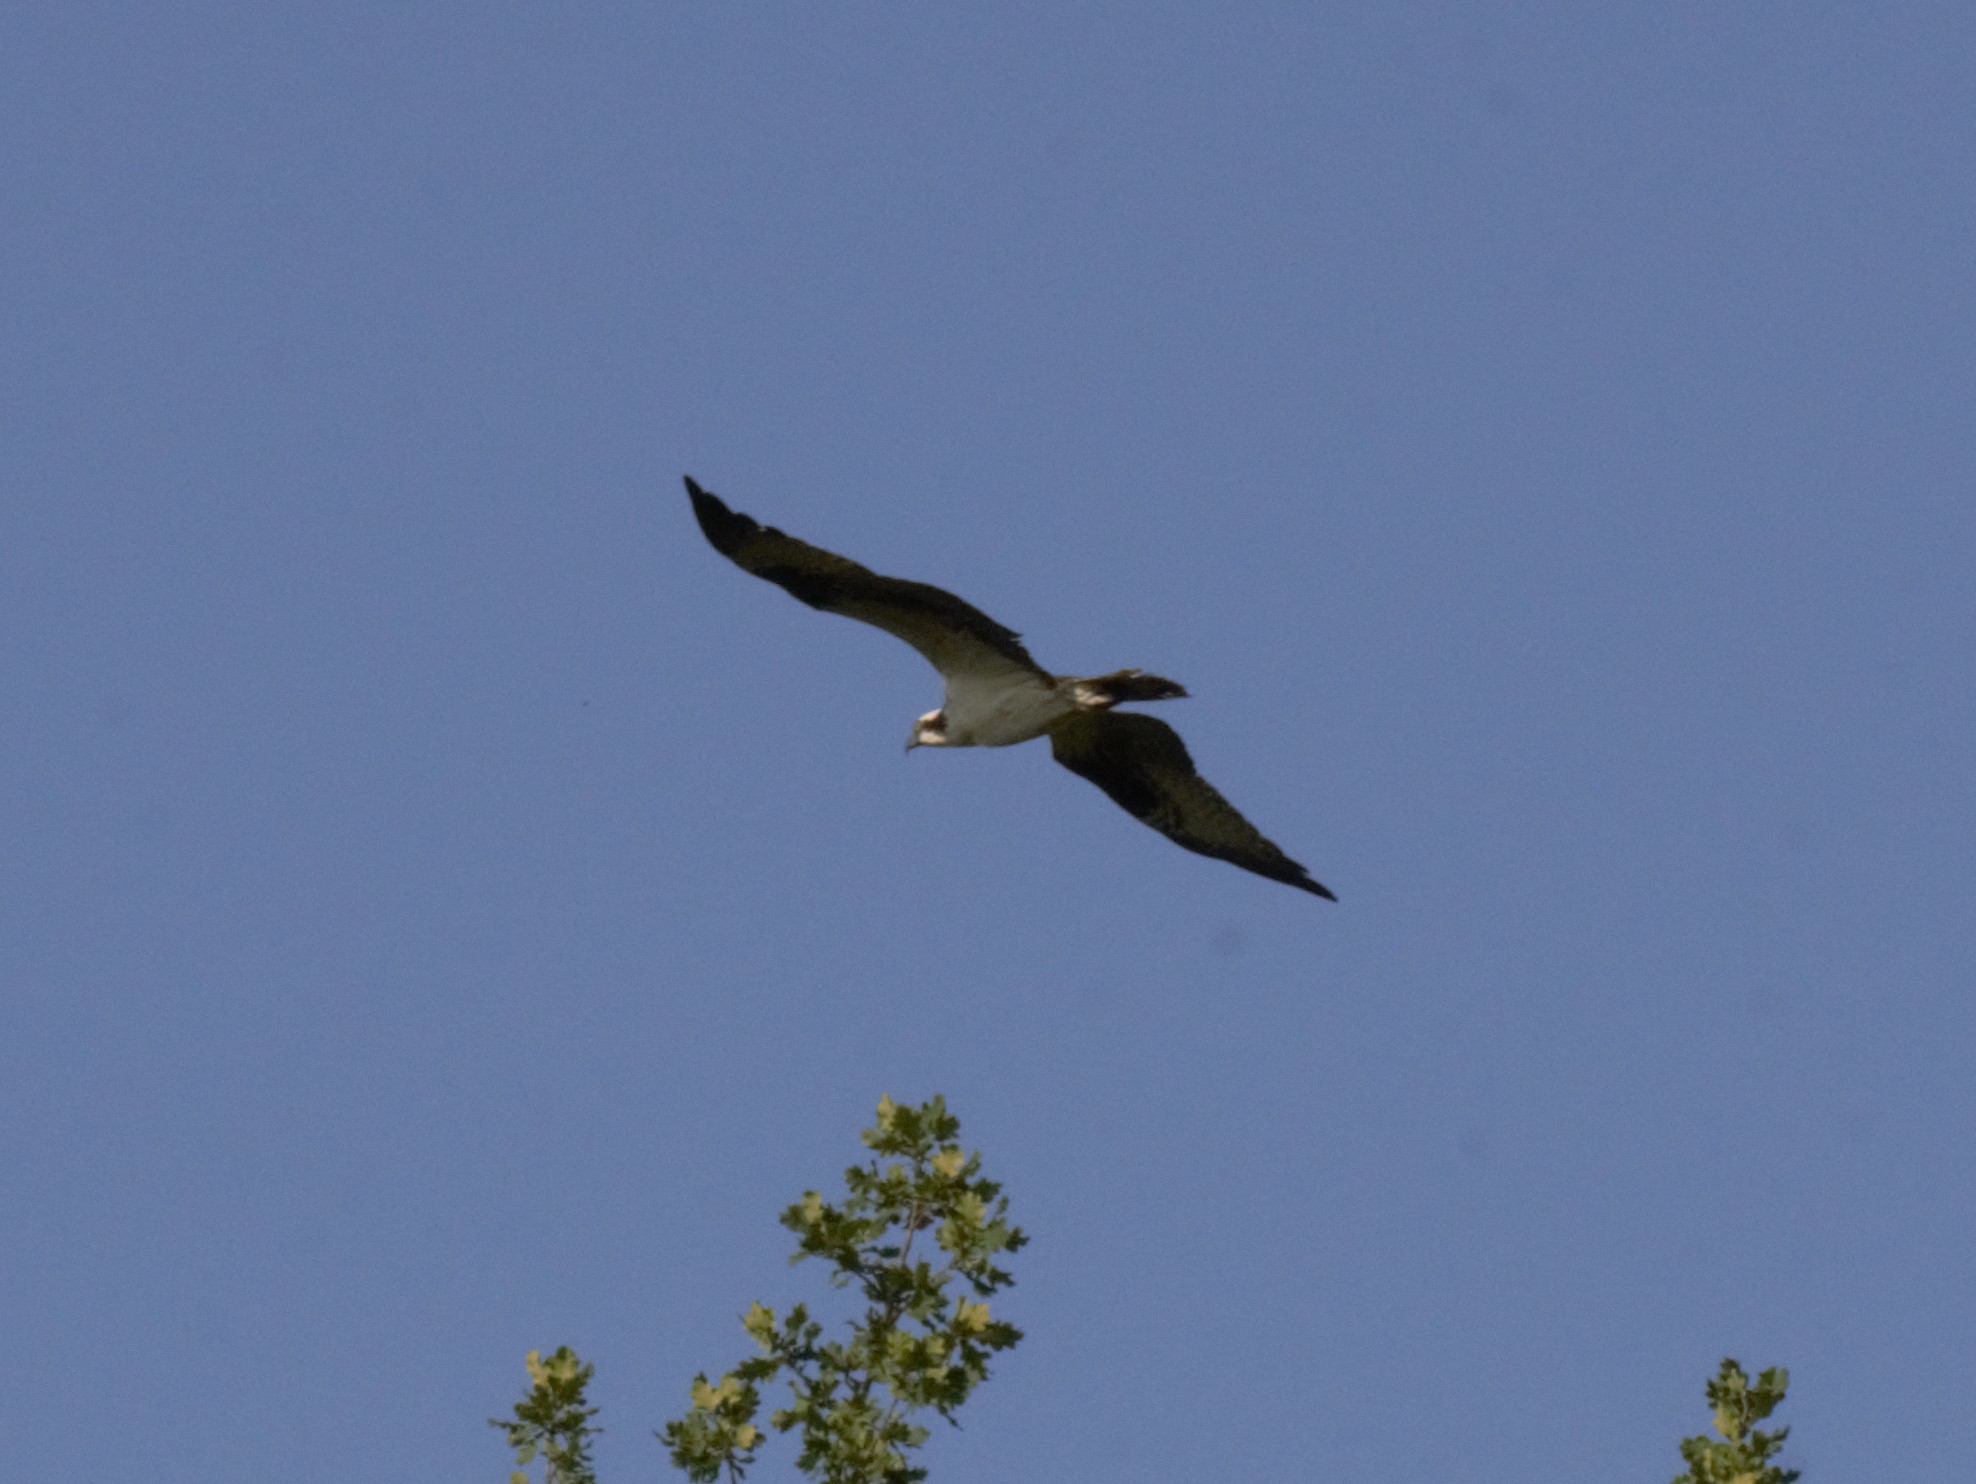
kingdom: Animalia
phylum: Chordata
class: Aves
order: Accipitriformes
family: Pandionidae
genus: Pandion
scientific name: Pandion haliaetus
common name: Osprey
